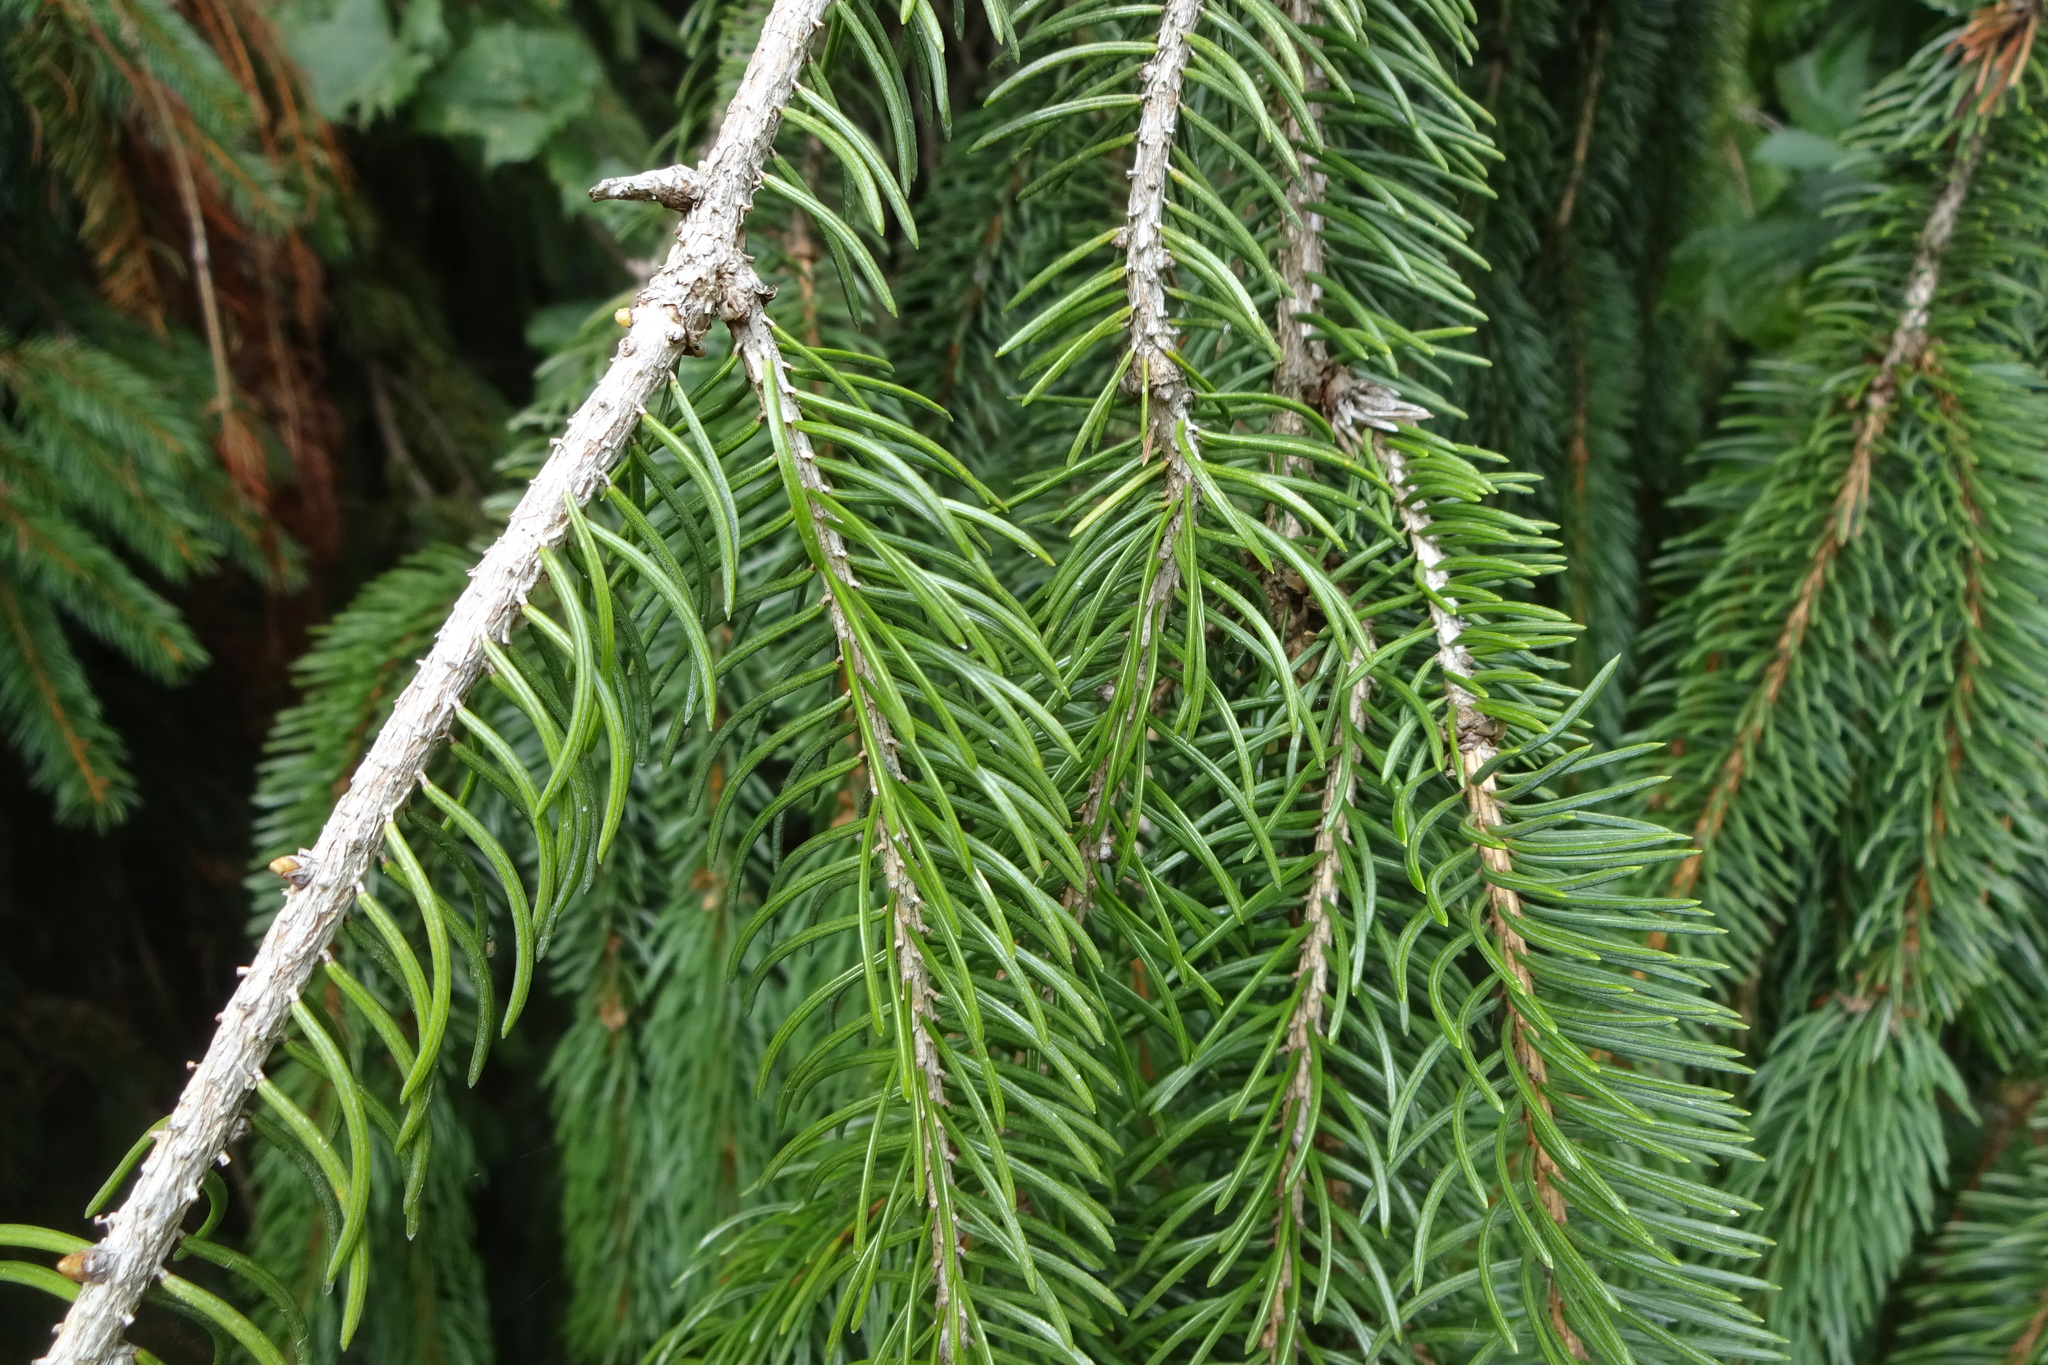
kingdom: Plantae
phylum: Tracheophyta
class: Pinopsida
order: Pinales
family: Pinaceae
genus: Picea
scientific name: Picea abies
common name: Norway spruce
